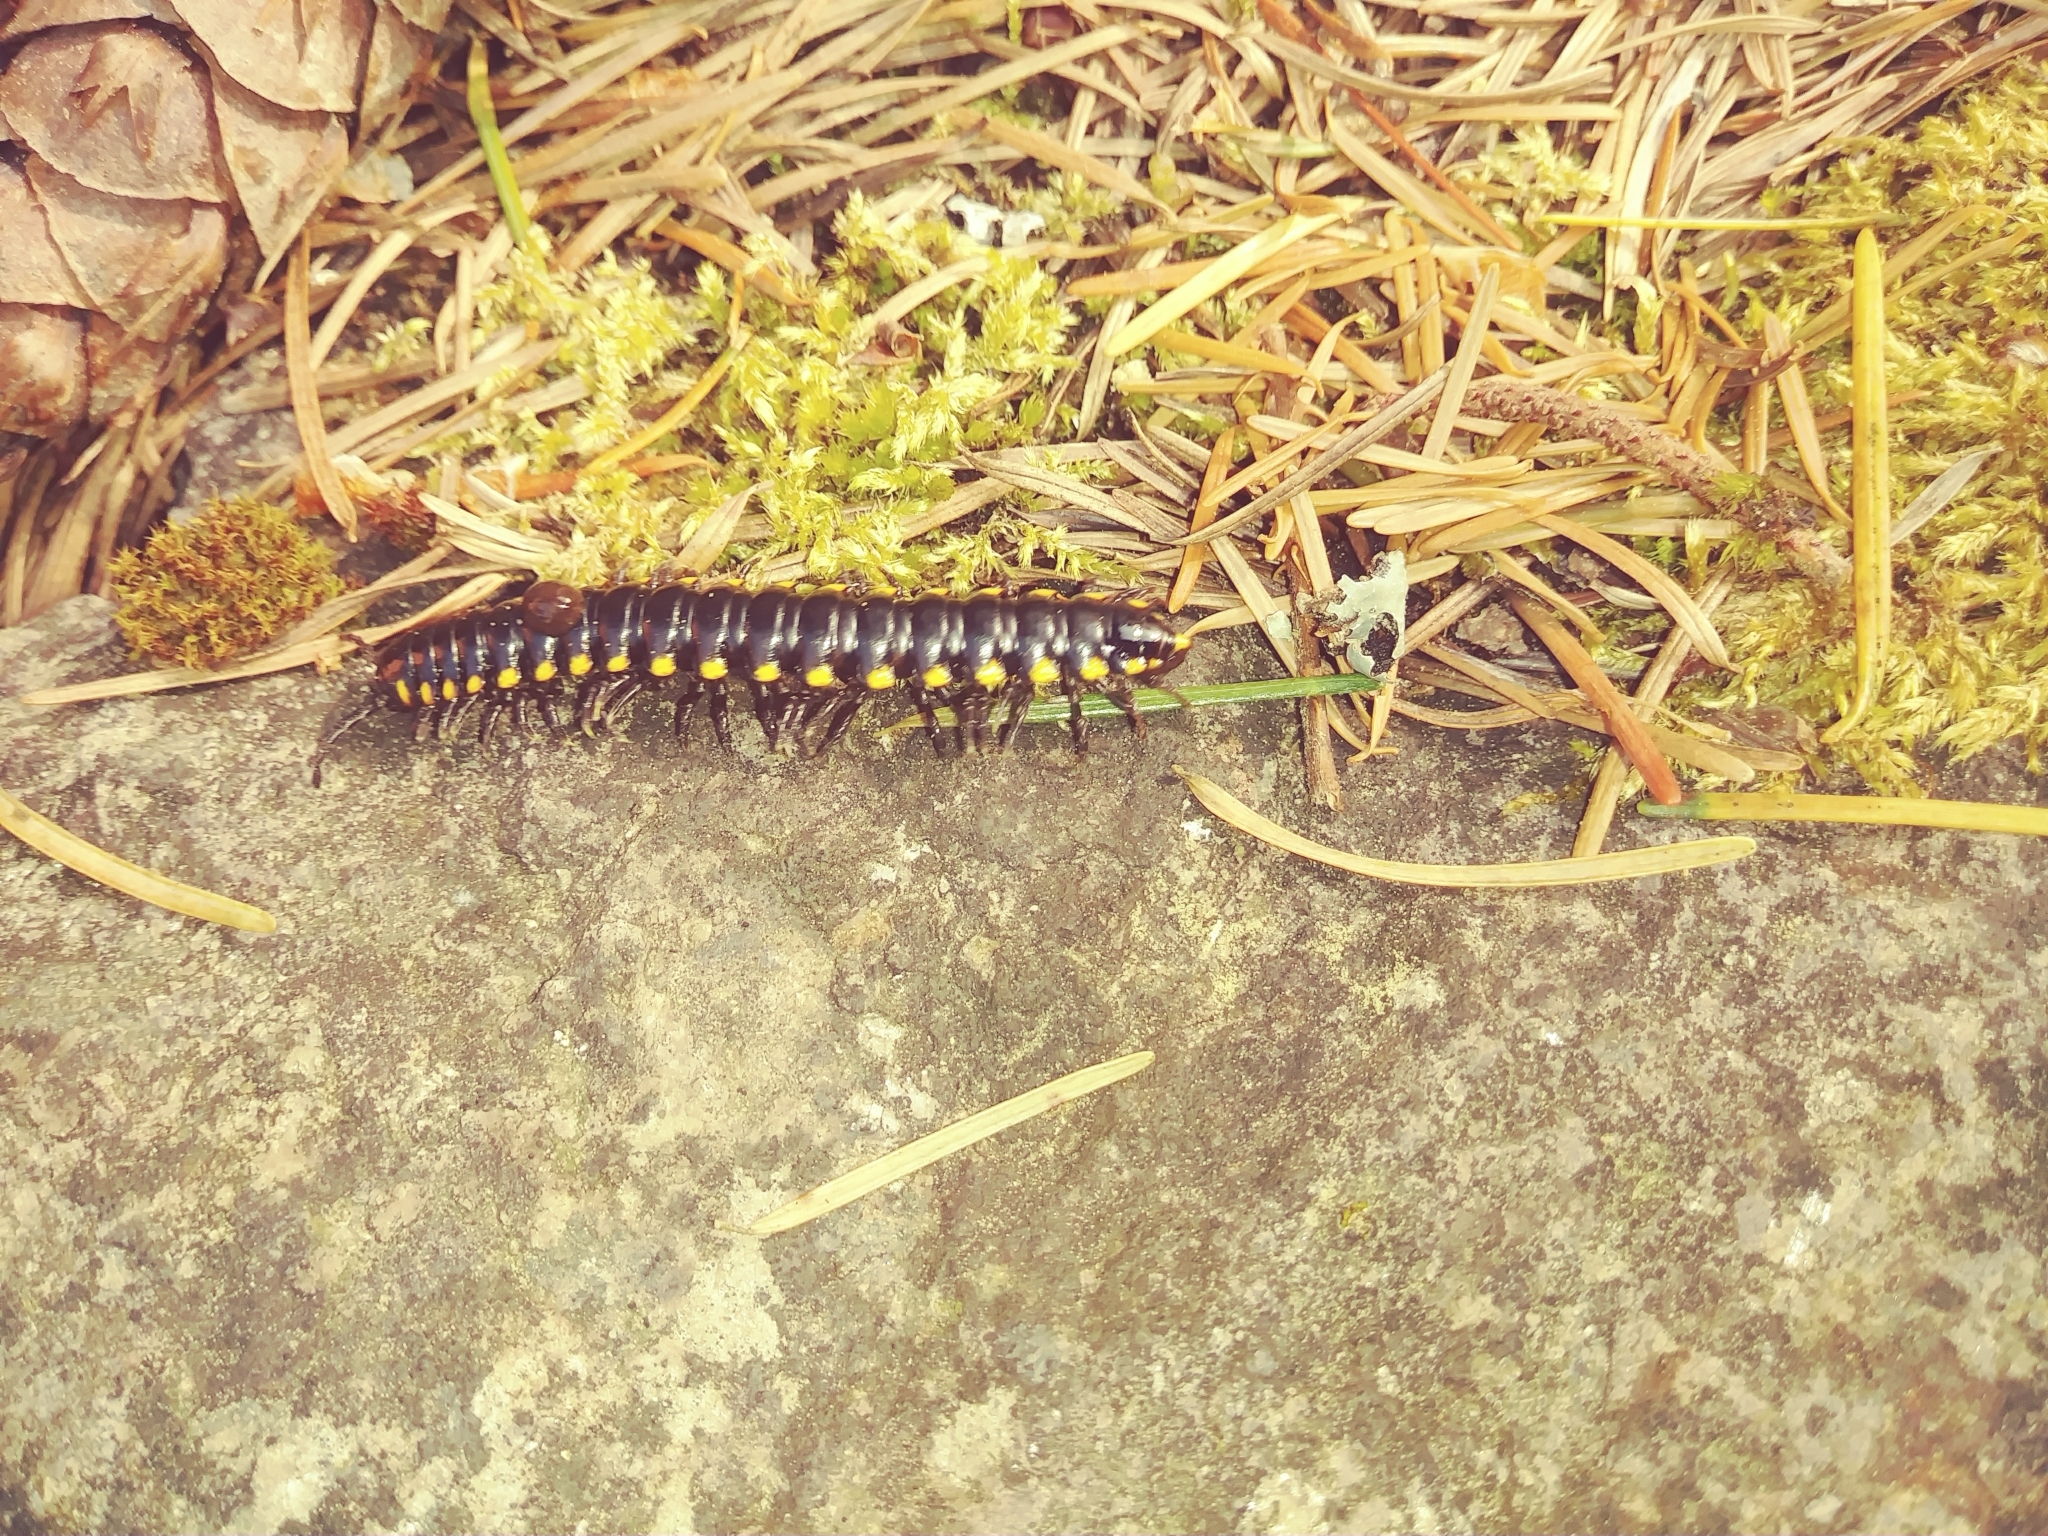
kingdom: Animalia
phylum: Arthropoda
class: Diplopoda
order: Polydesmida
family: Xystodesmidae
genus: Harpaphe
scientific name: Harpaphe haydeniana
